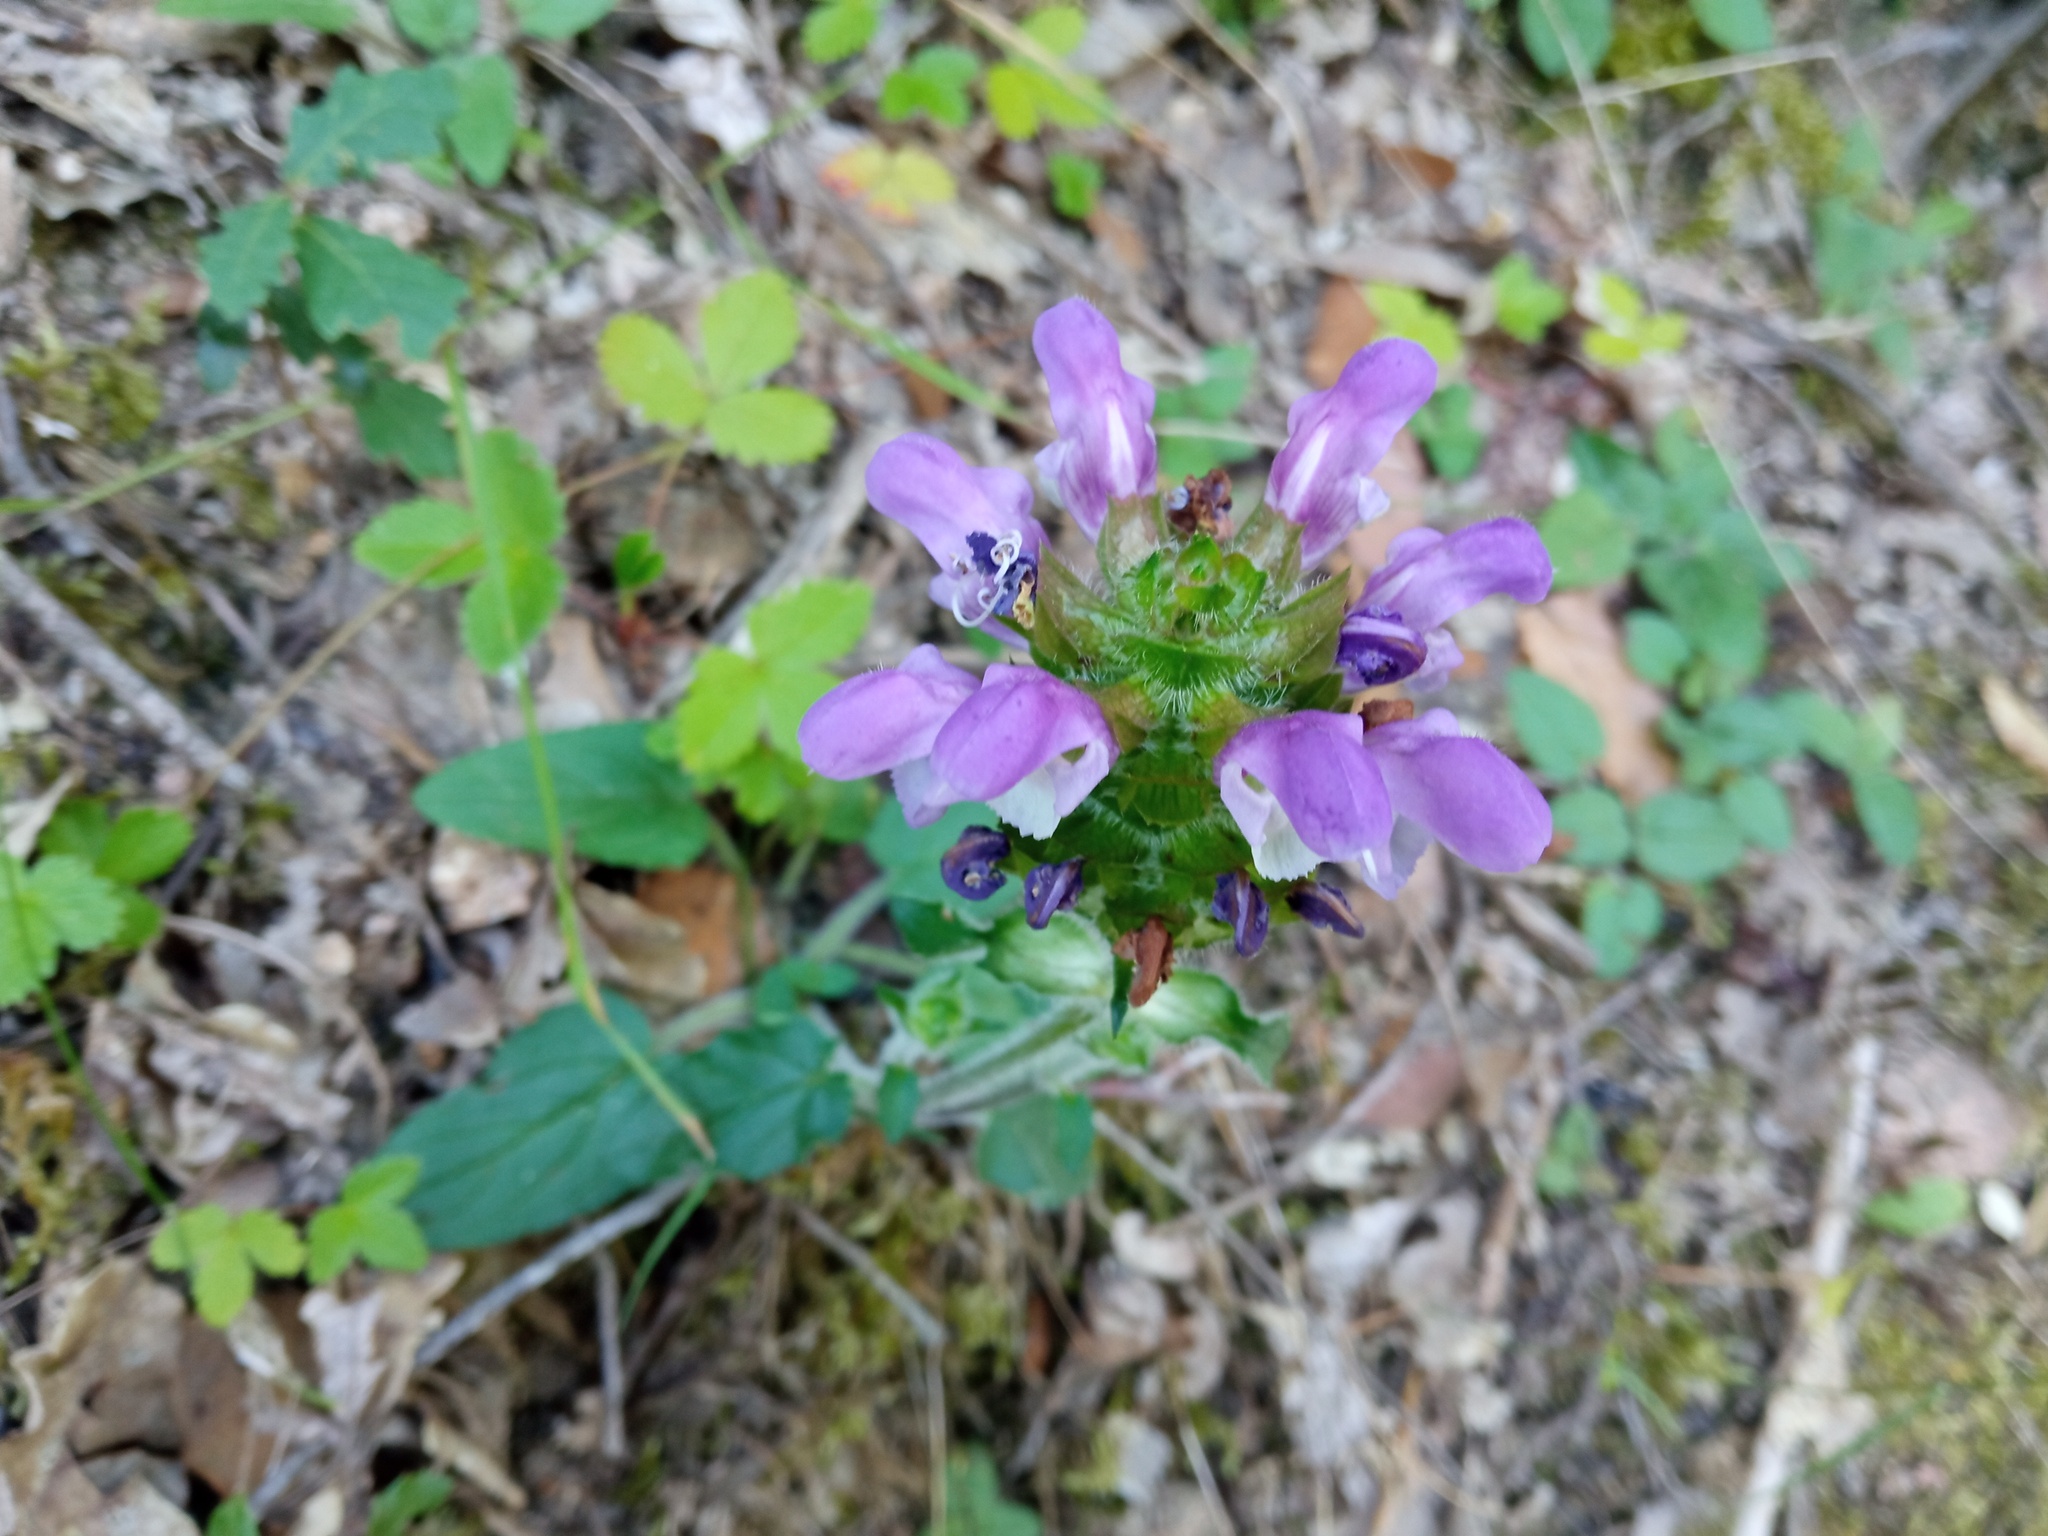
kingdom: Plantae
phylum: Tracheophyta
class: Magnoliopsida
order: Lamiales
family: Lamiaceae
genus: Prunella
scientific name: Prunella grandiflora
